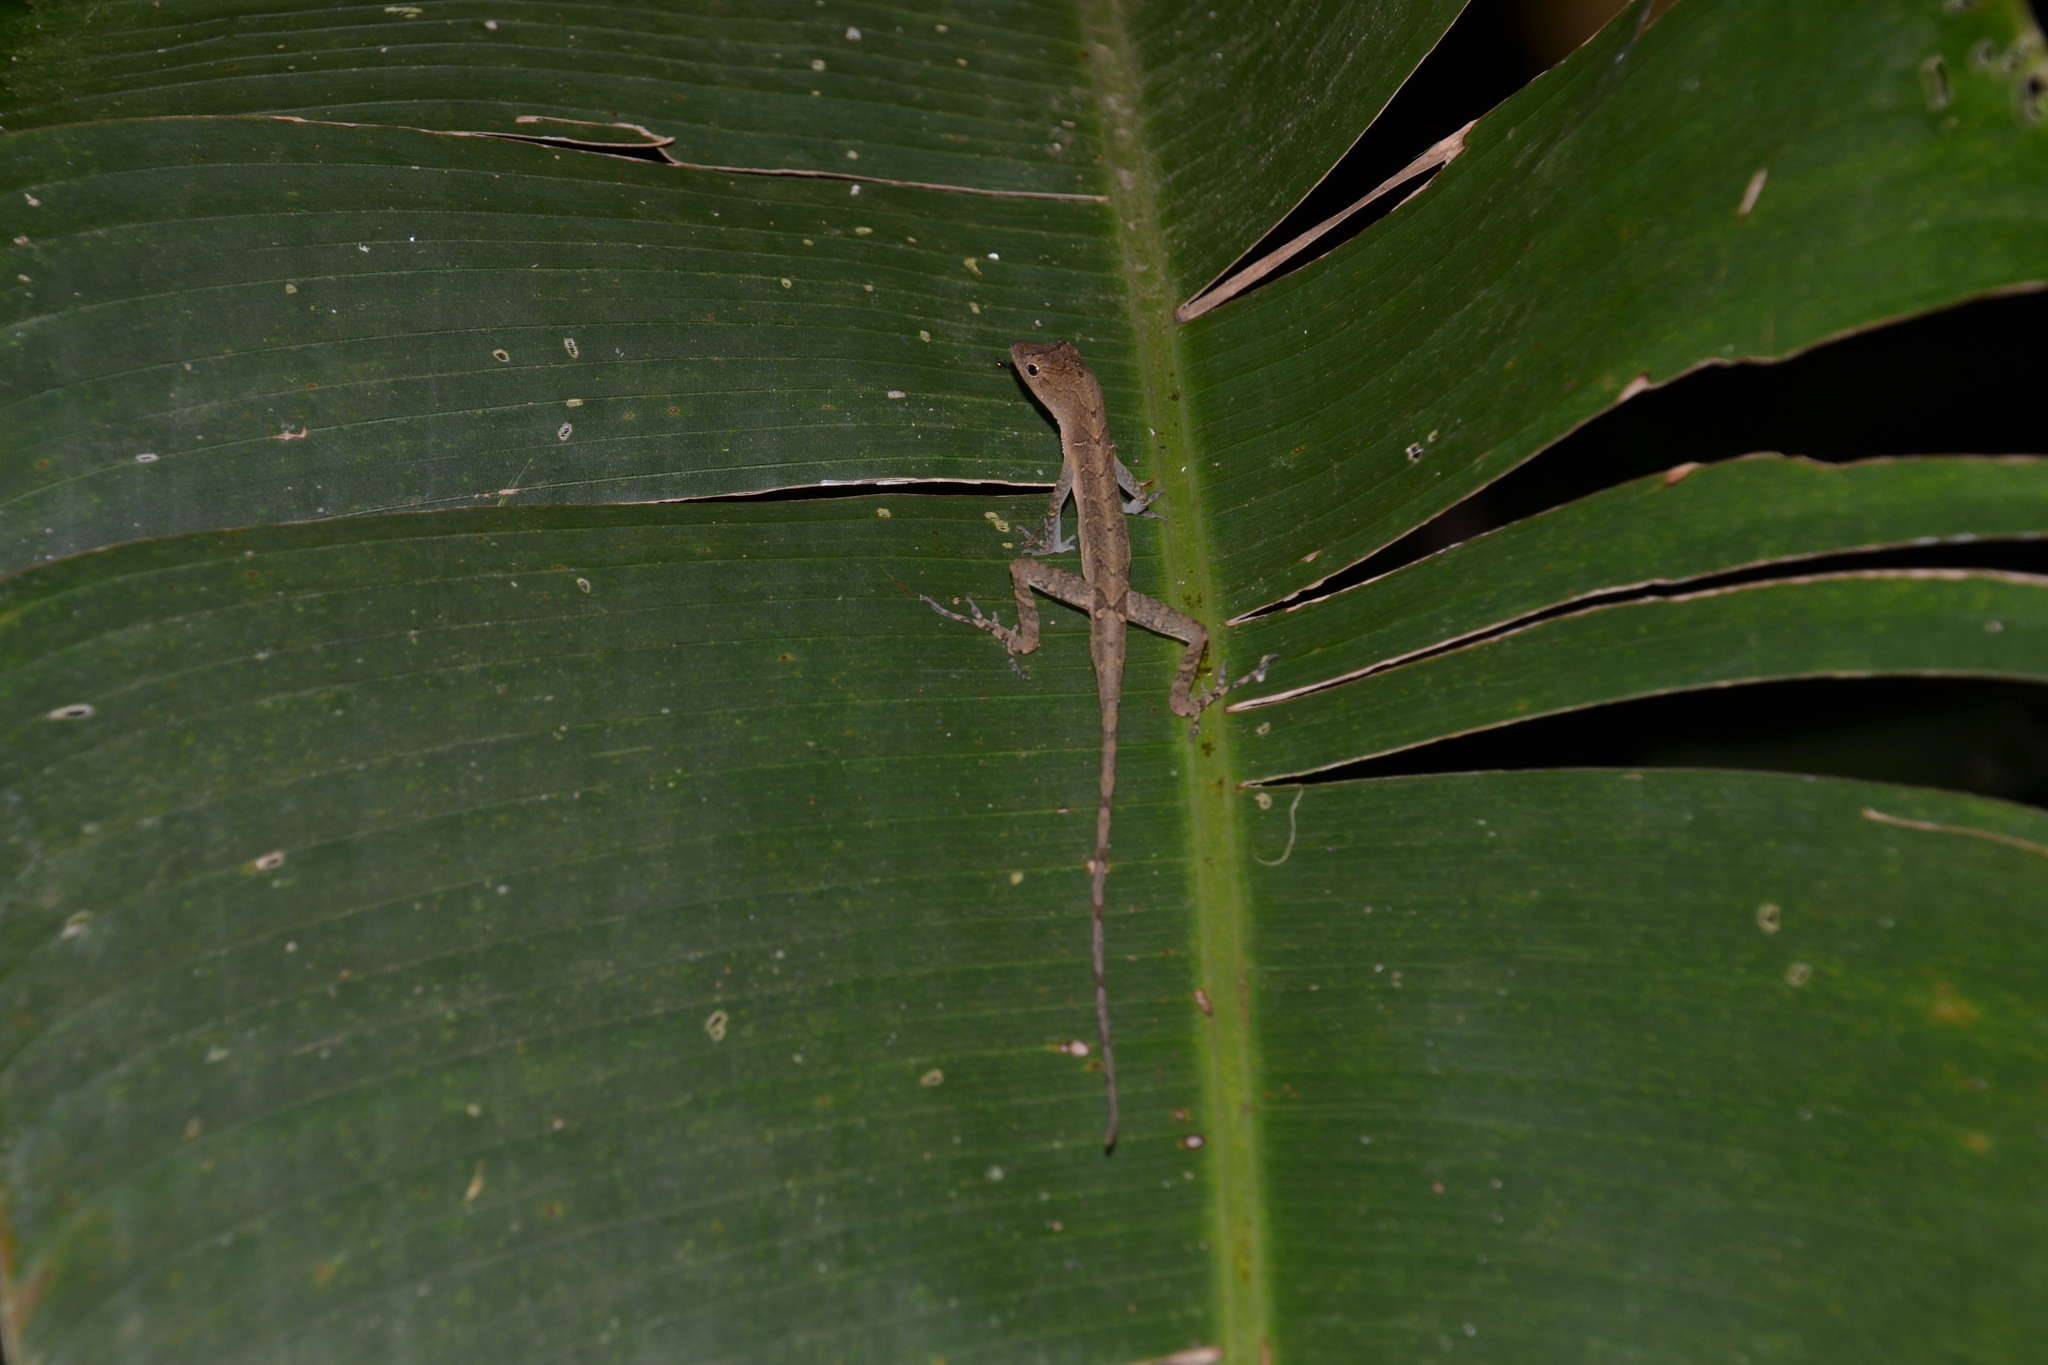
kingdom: Animalia
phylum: Chordata
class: Squamata
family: Dactyloidae
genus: Anolis
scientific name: Anolis limifrons
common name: Border anole
